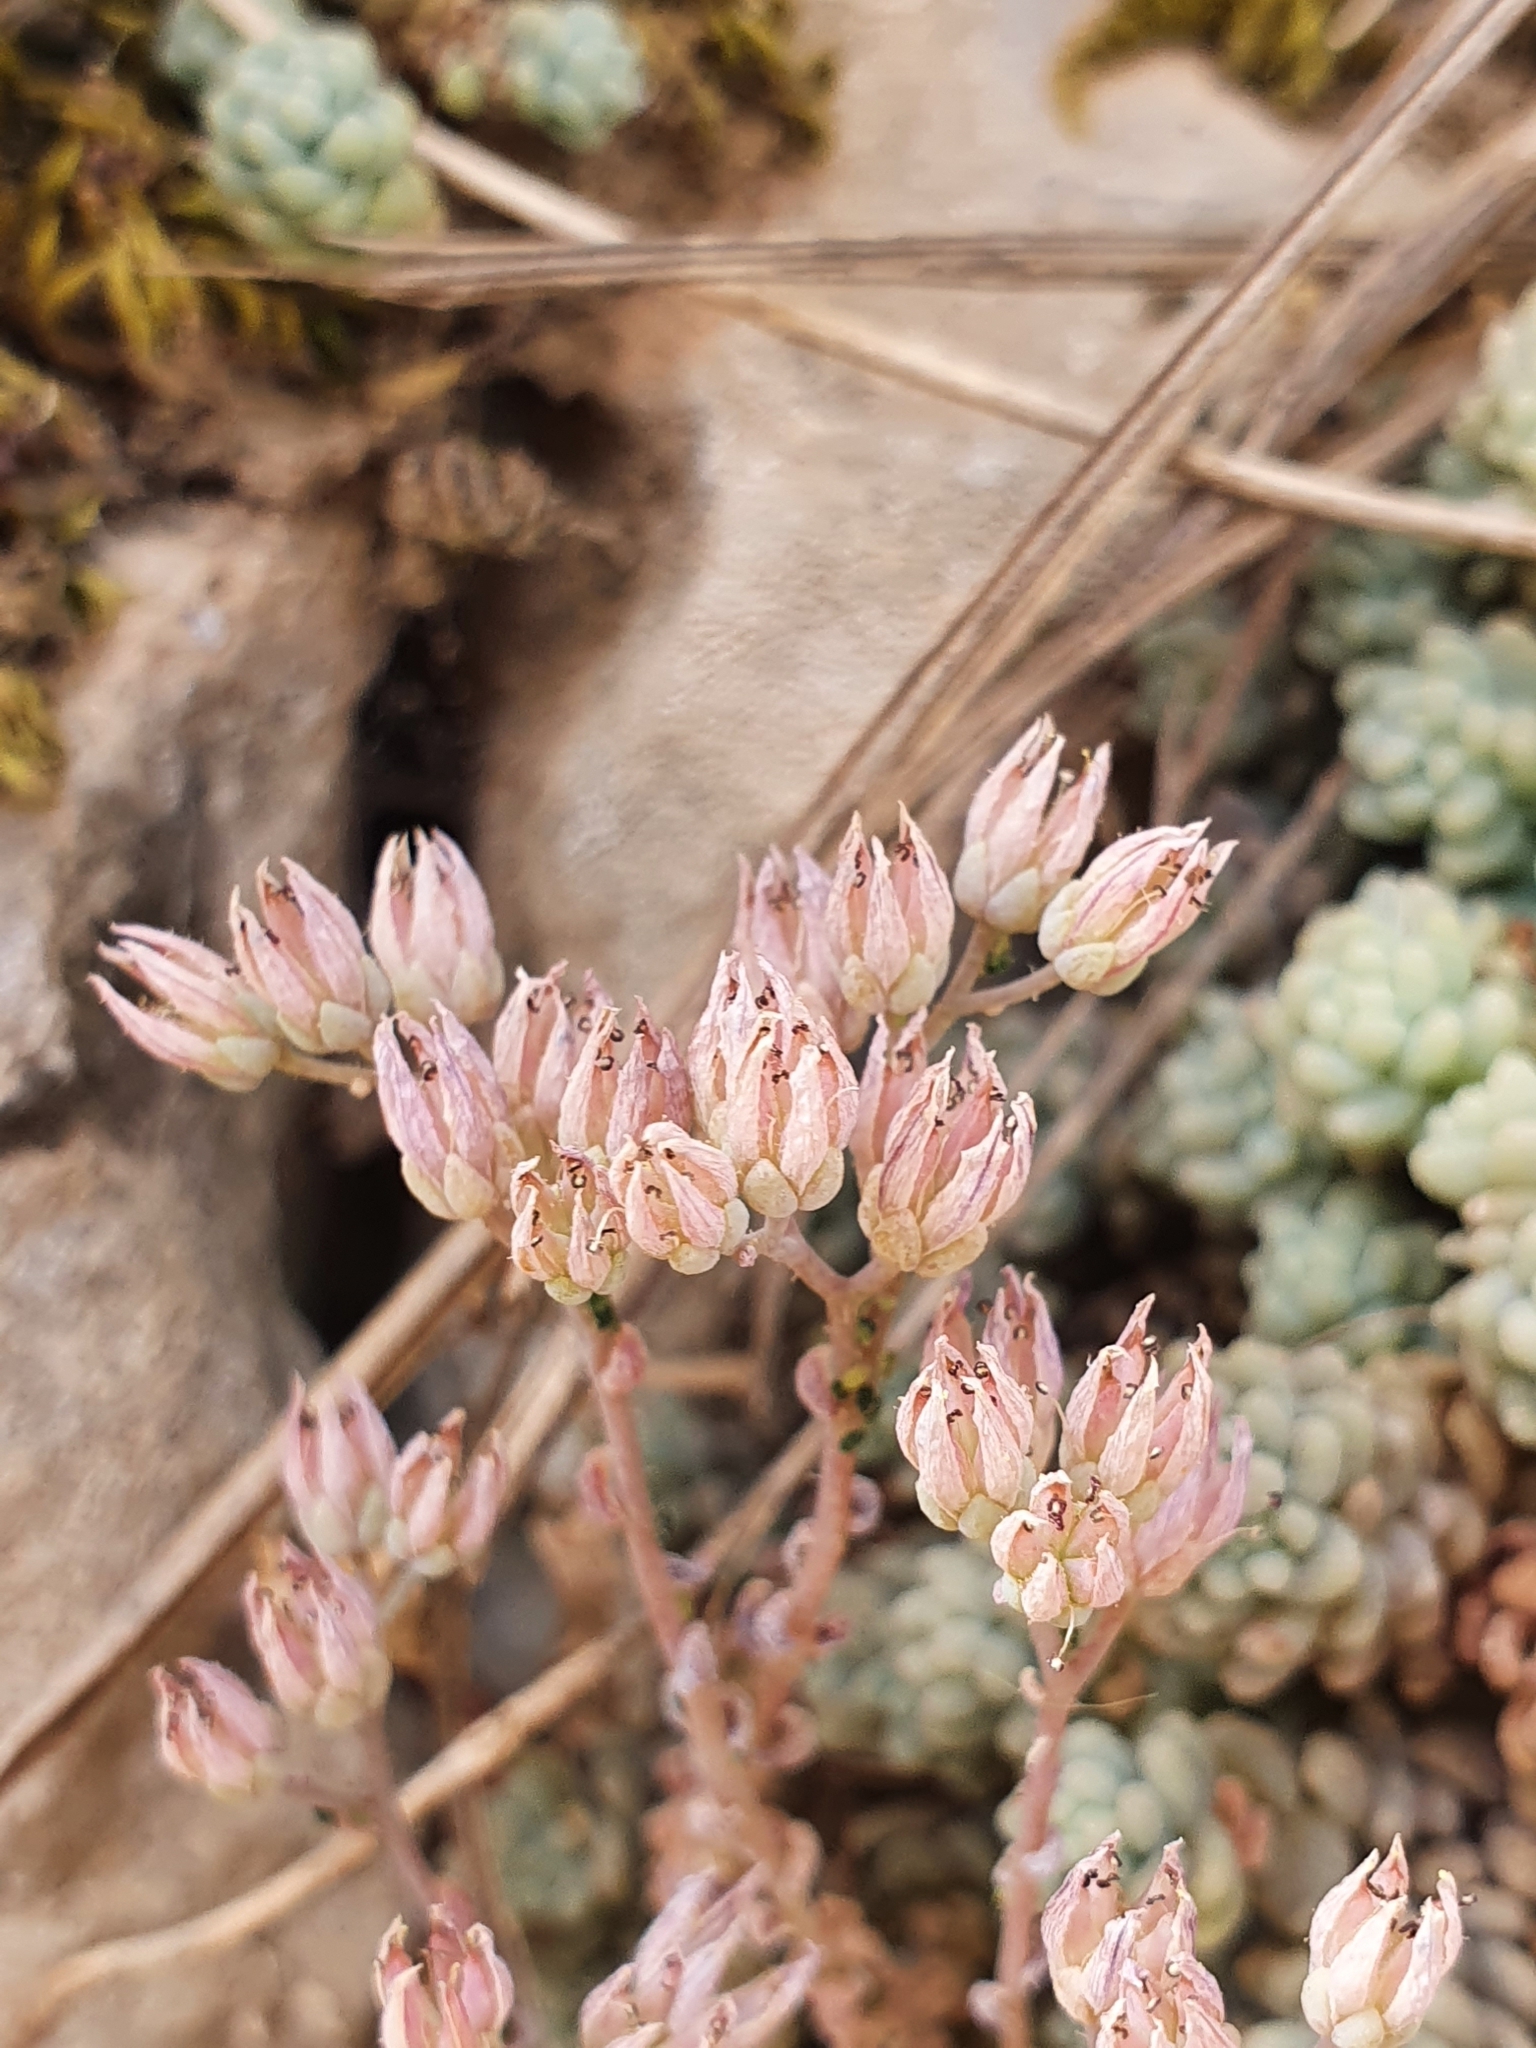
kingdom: Plantae
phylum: Tracheophyta
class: Magnoliopsida
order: Saxifragales
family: Crassulaceae
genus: Sedum
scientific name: Sedum dasyphyllum
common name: Thick-leaf stonecrop
